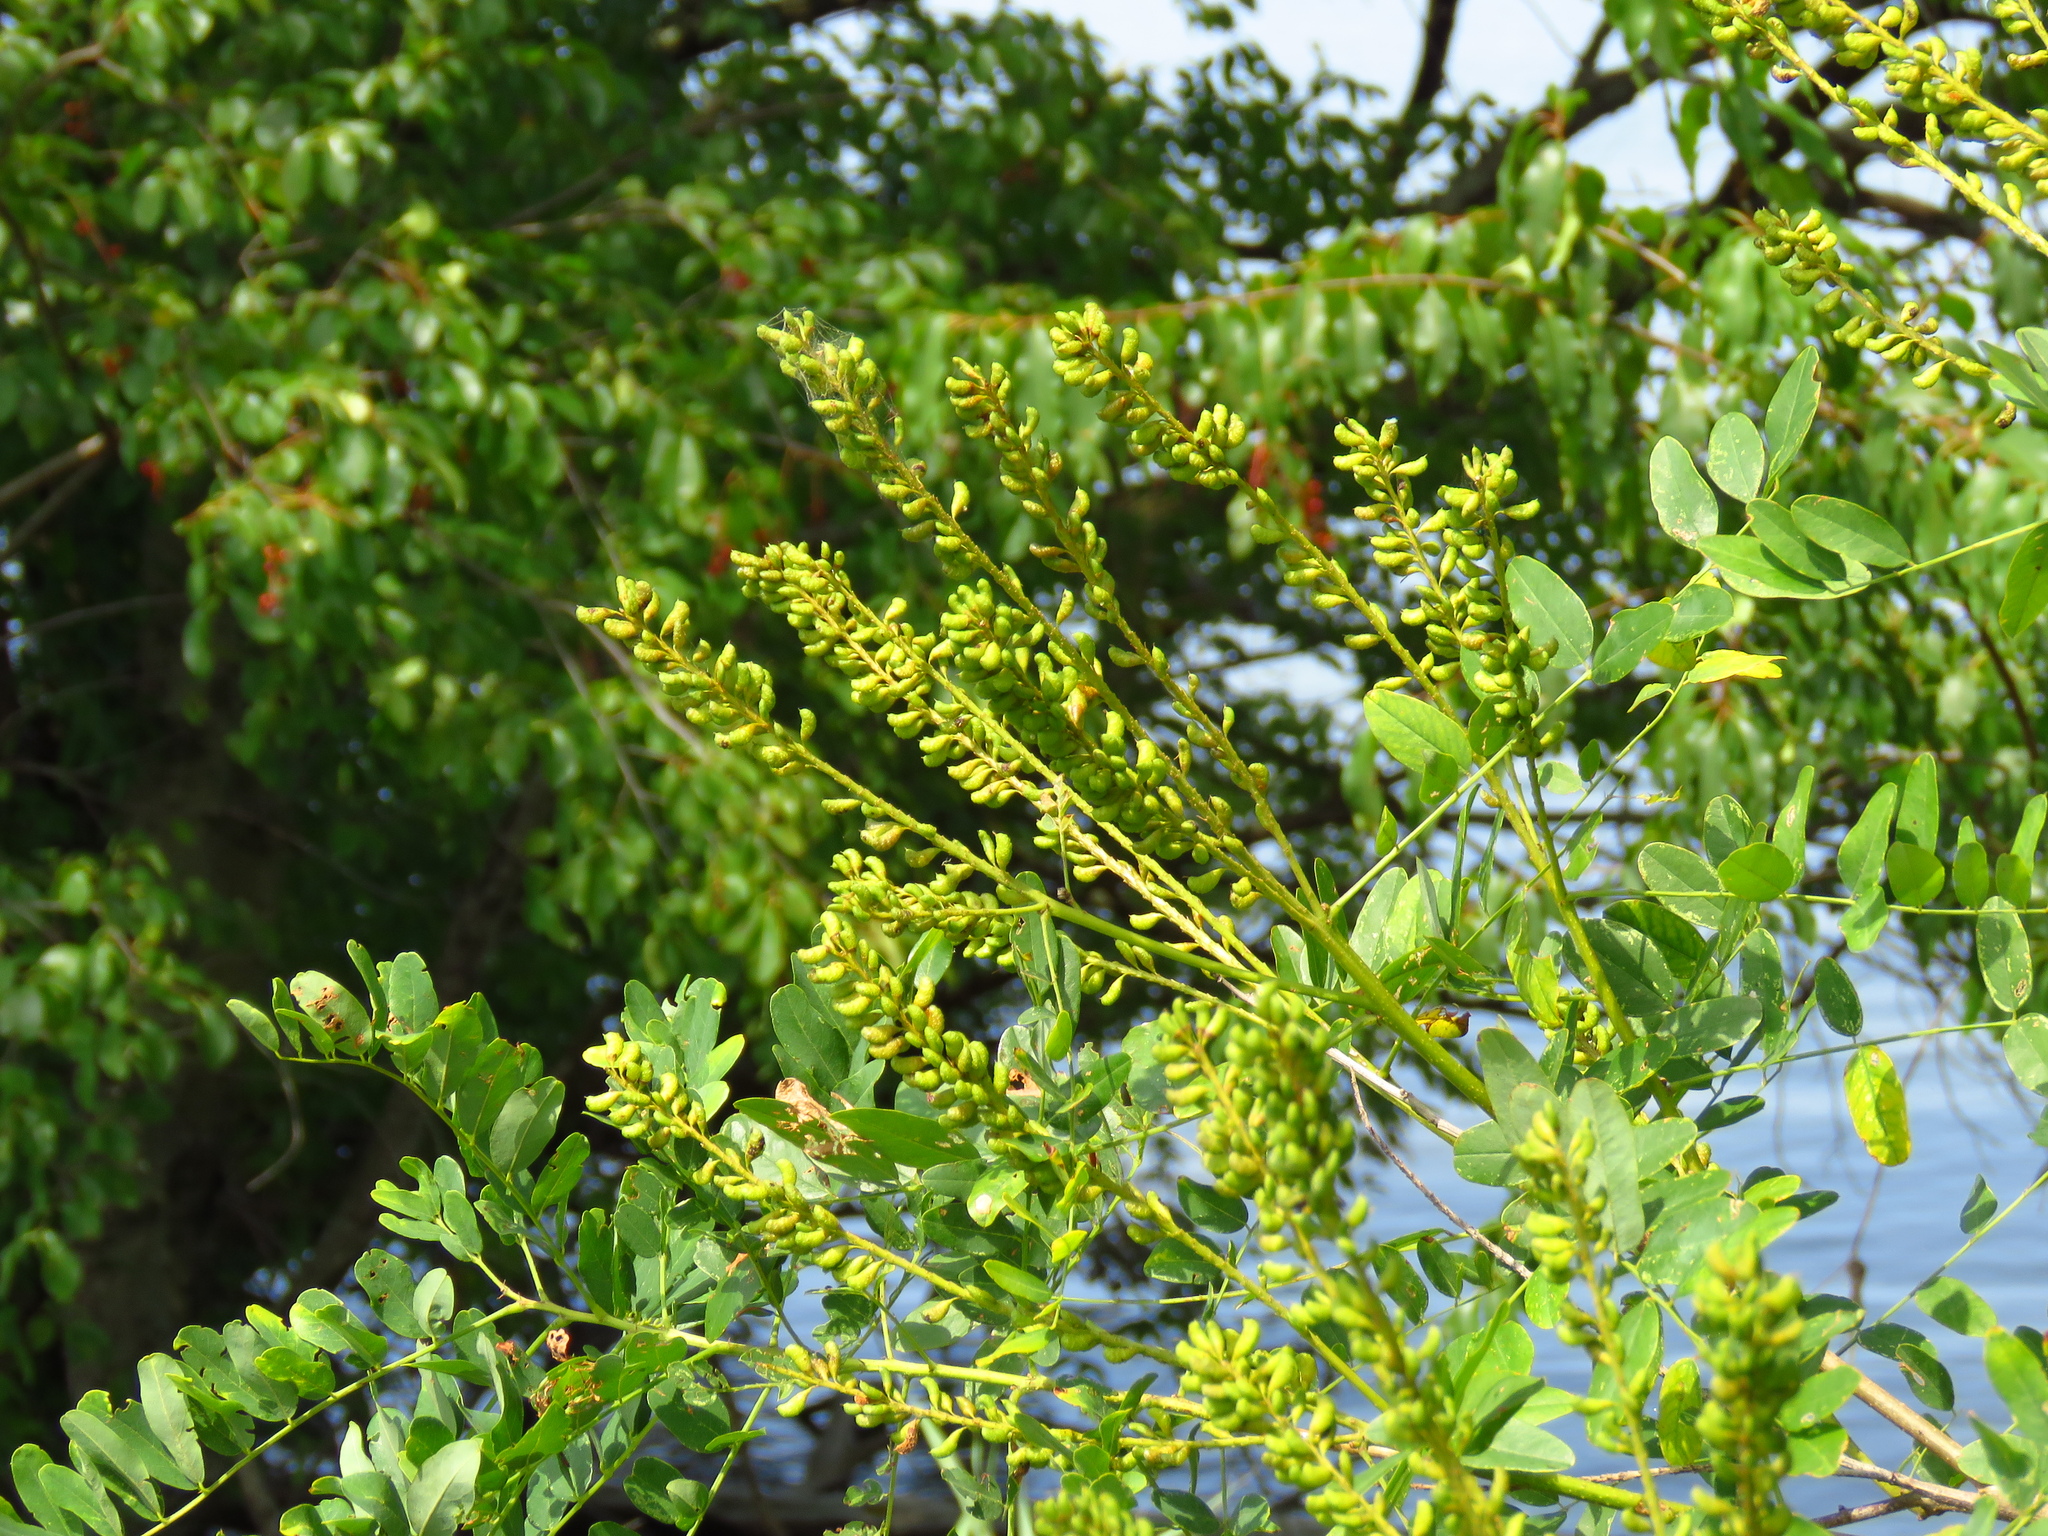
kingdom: Plantae
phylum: Tracheophyta
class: Magnoliopsida
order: Fabales
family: Fabaceae
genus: Amorpha
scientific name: Amorpha fruticosa
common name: False indigo
